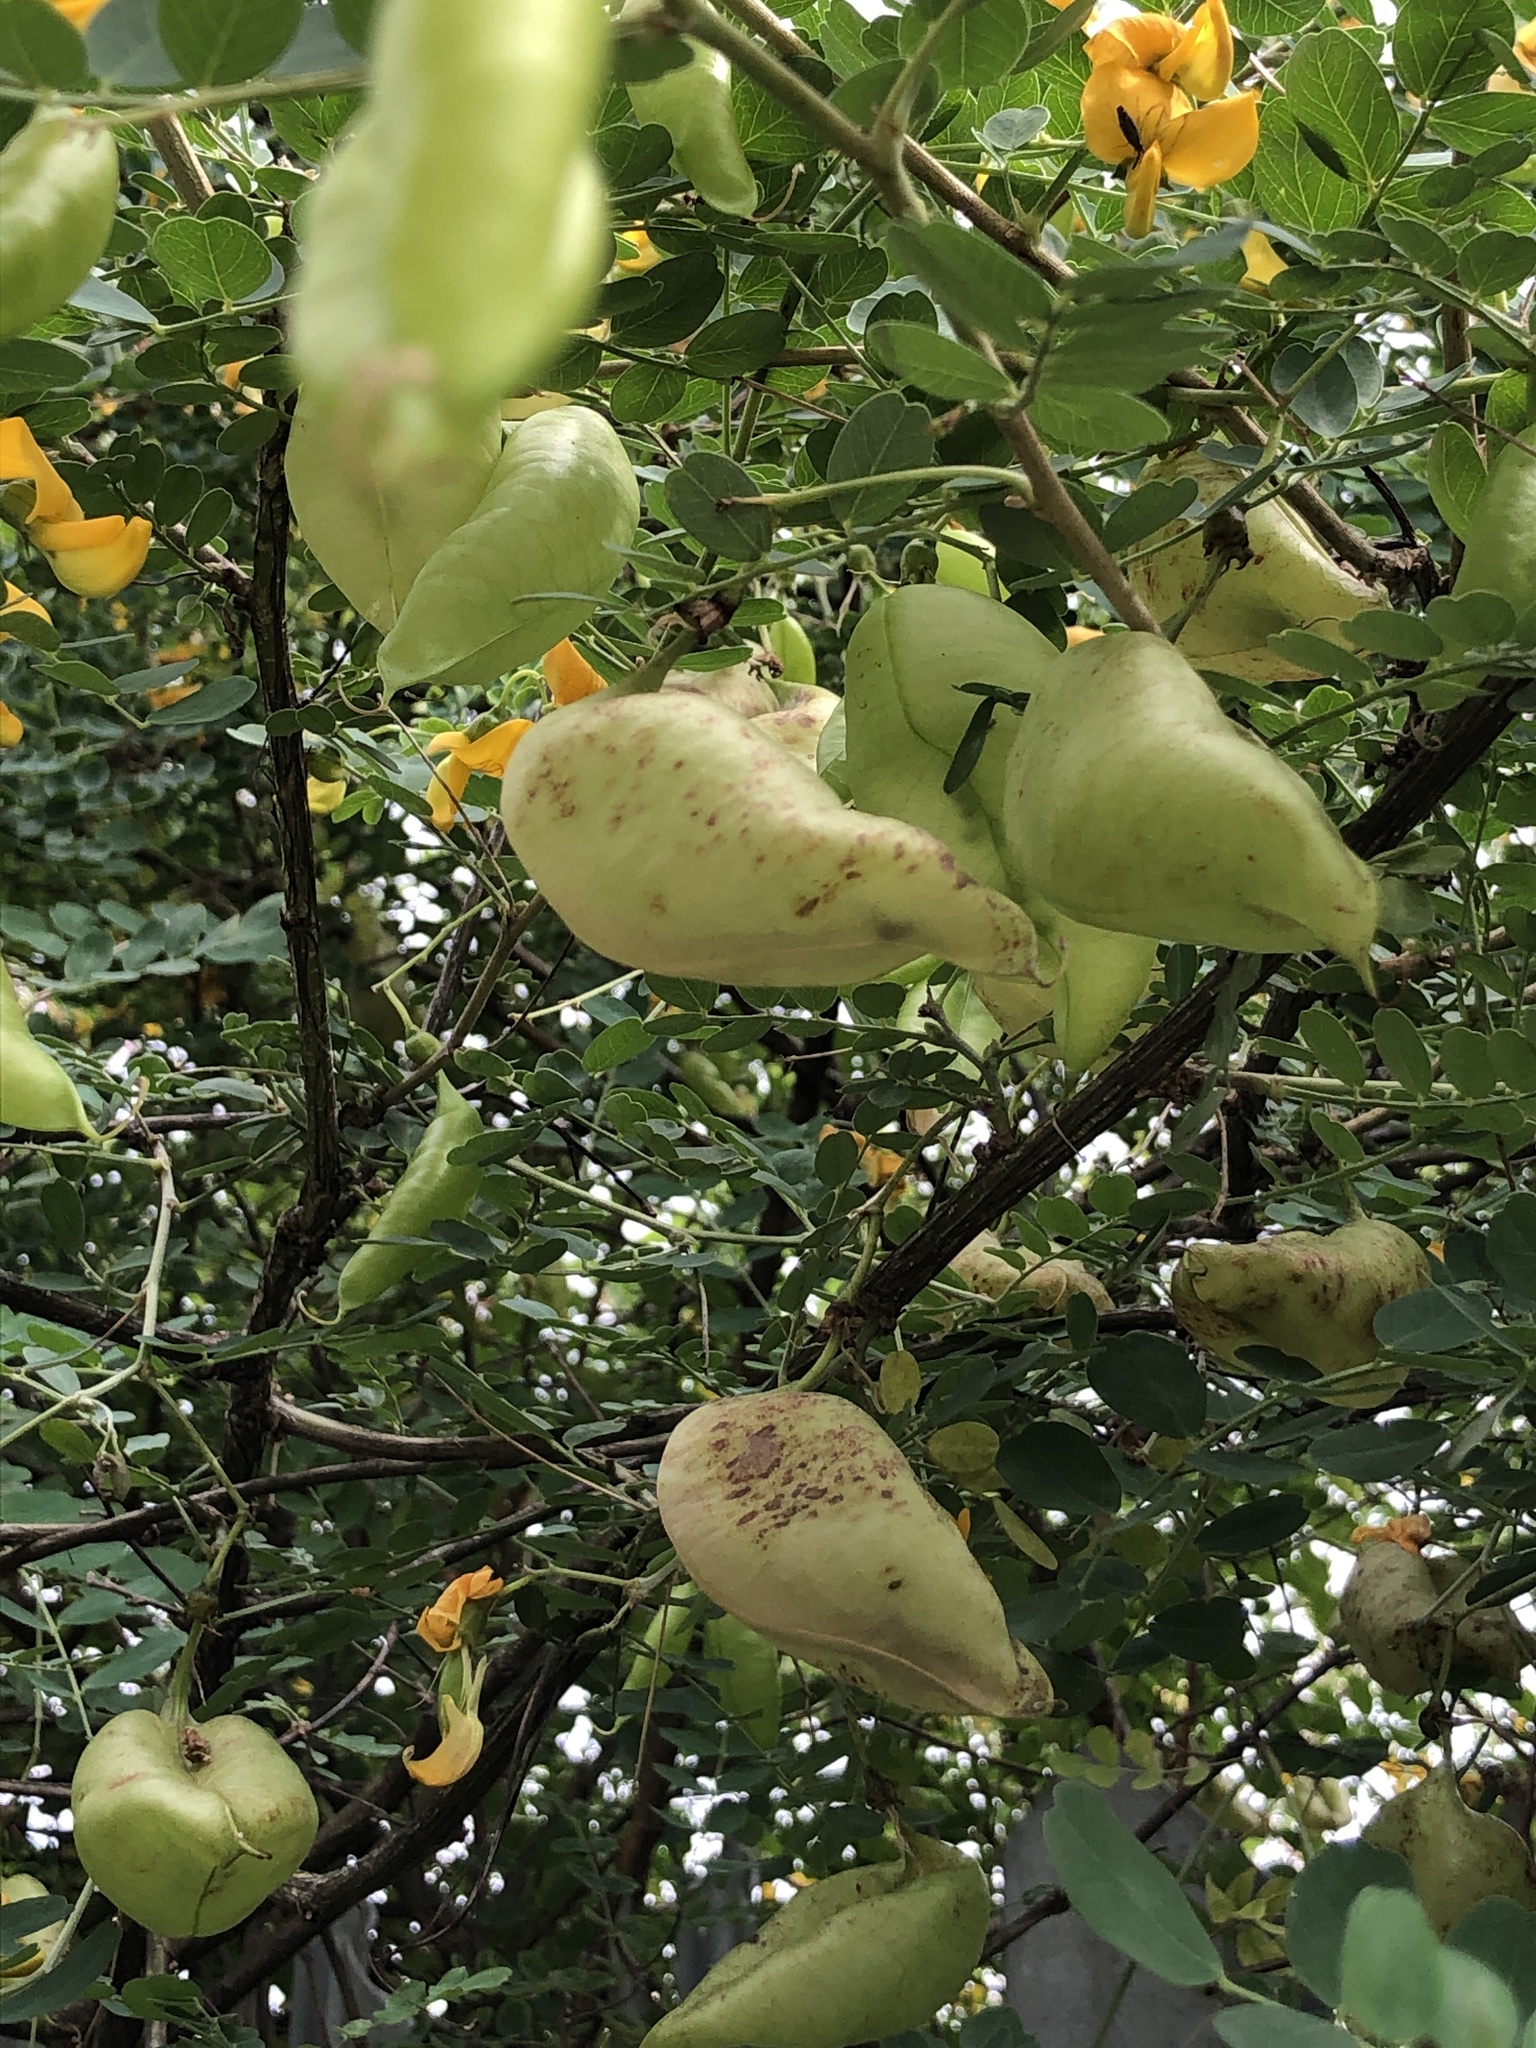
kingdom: Plantae
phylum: Tracheophyta
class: Magnoliopsida
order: Fabales
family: Fabaceae
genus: Colutea
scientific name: Colutea arborescens
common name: Bladder-senna
